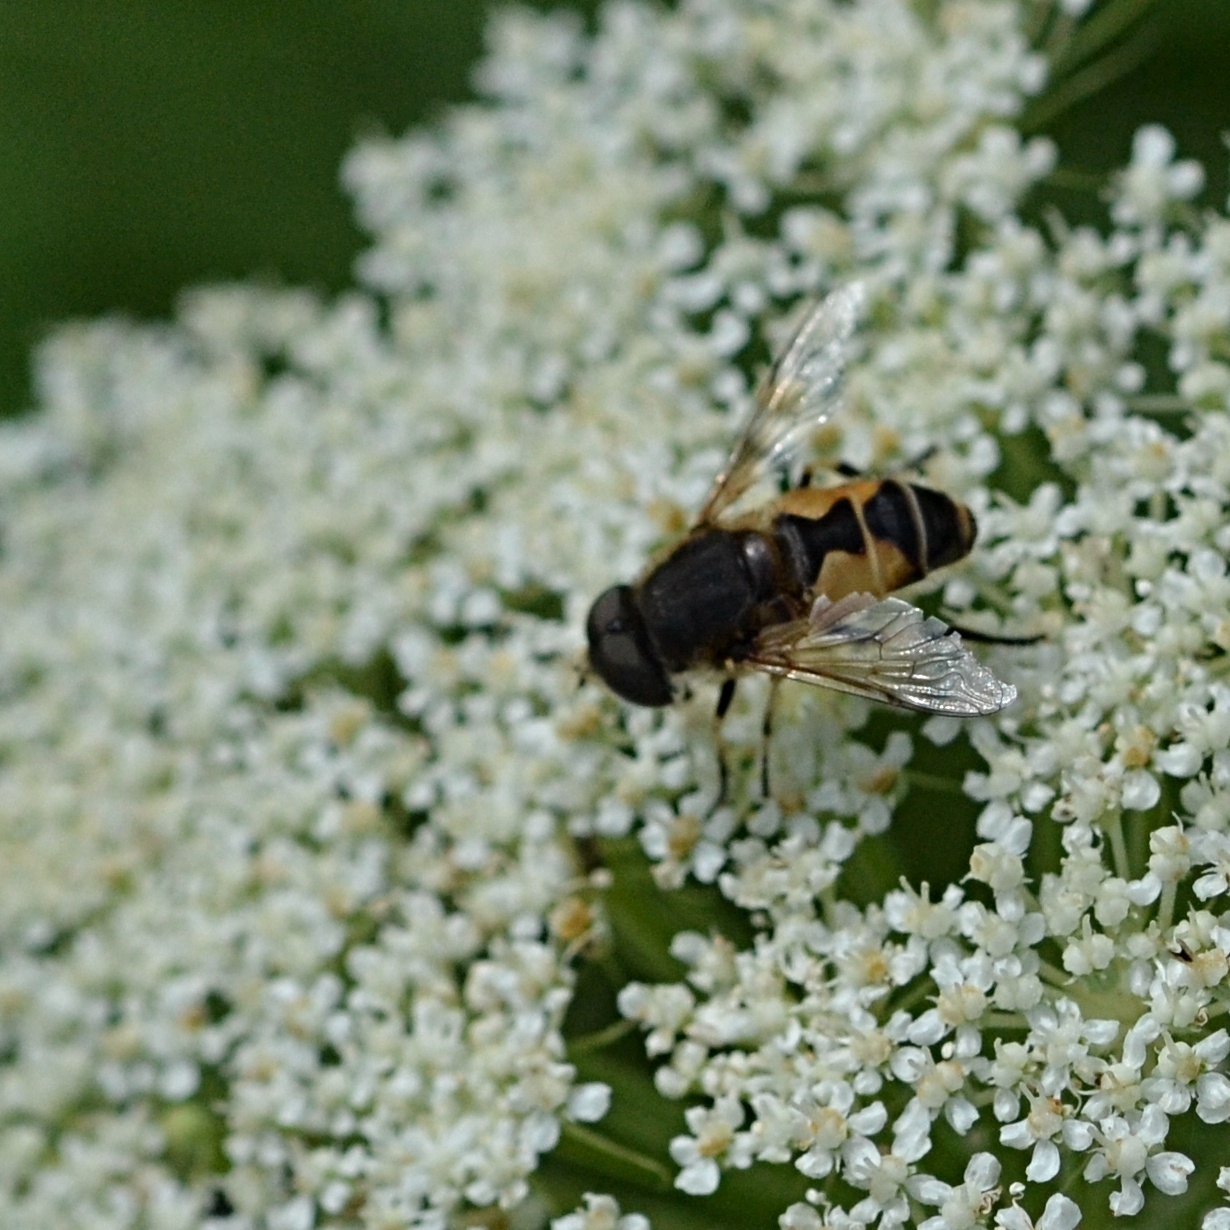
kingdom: Animalia
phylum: Arthropoda
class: Insecta
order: Diptera
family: Syrphidae
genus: Eristalis
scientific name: Eristalis arbustorum
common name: Hover fly
